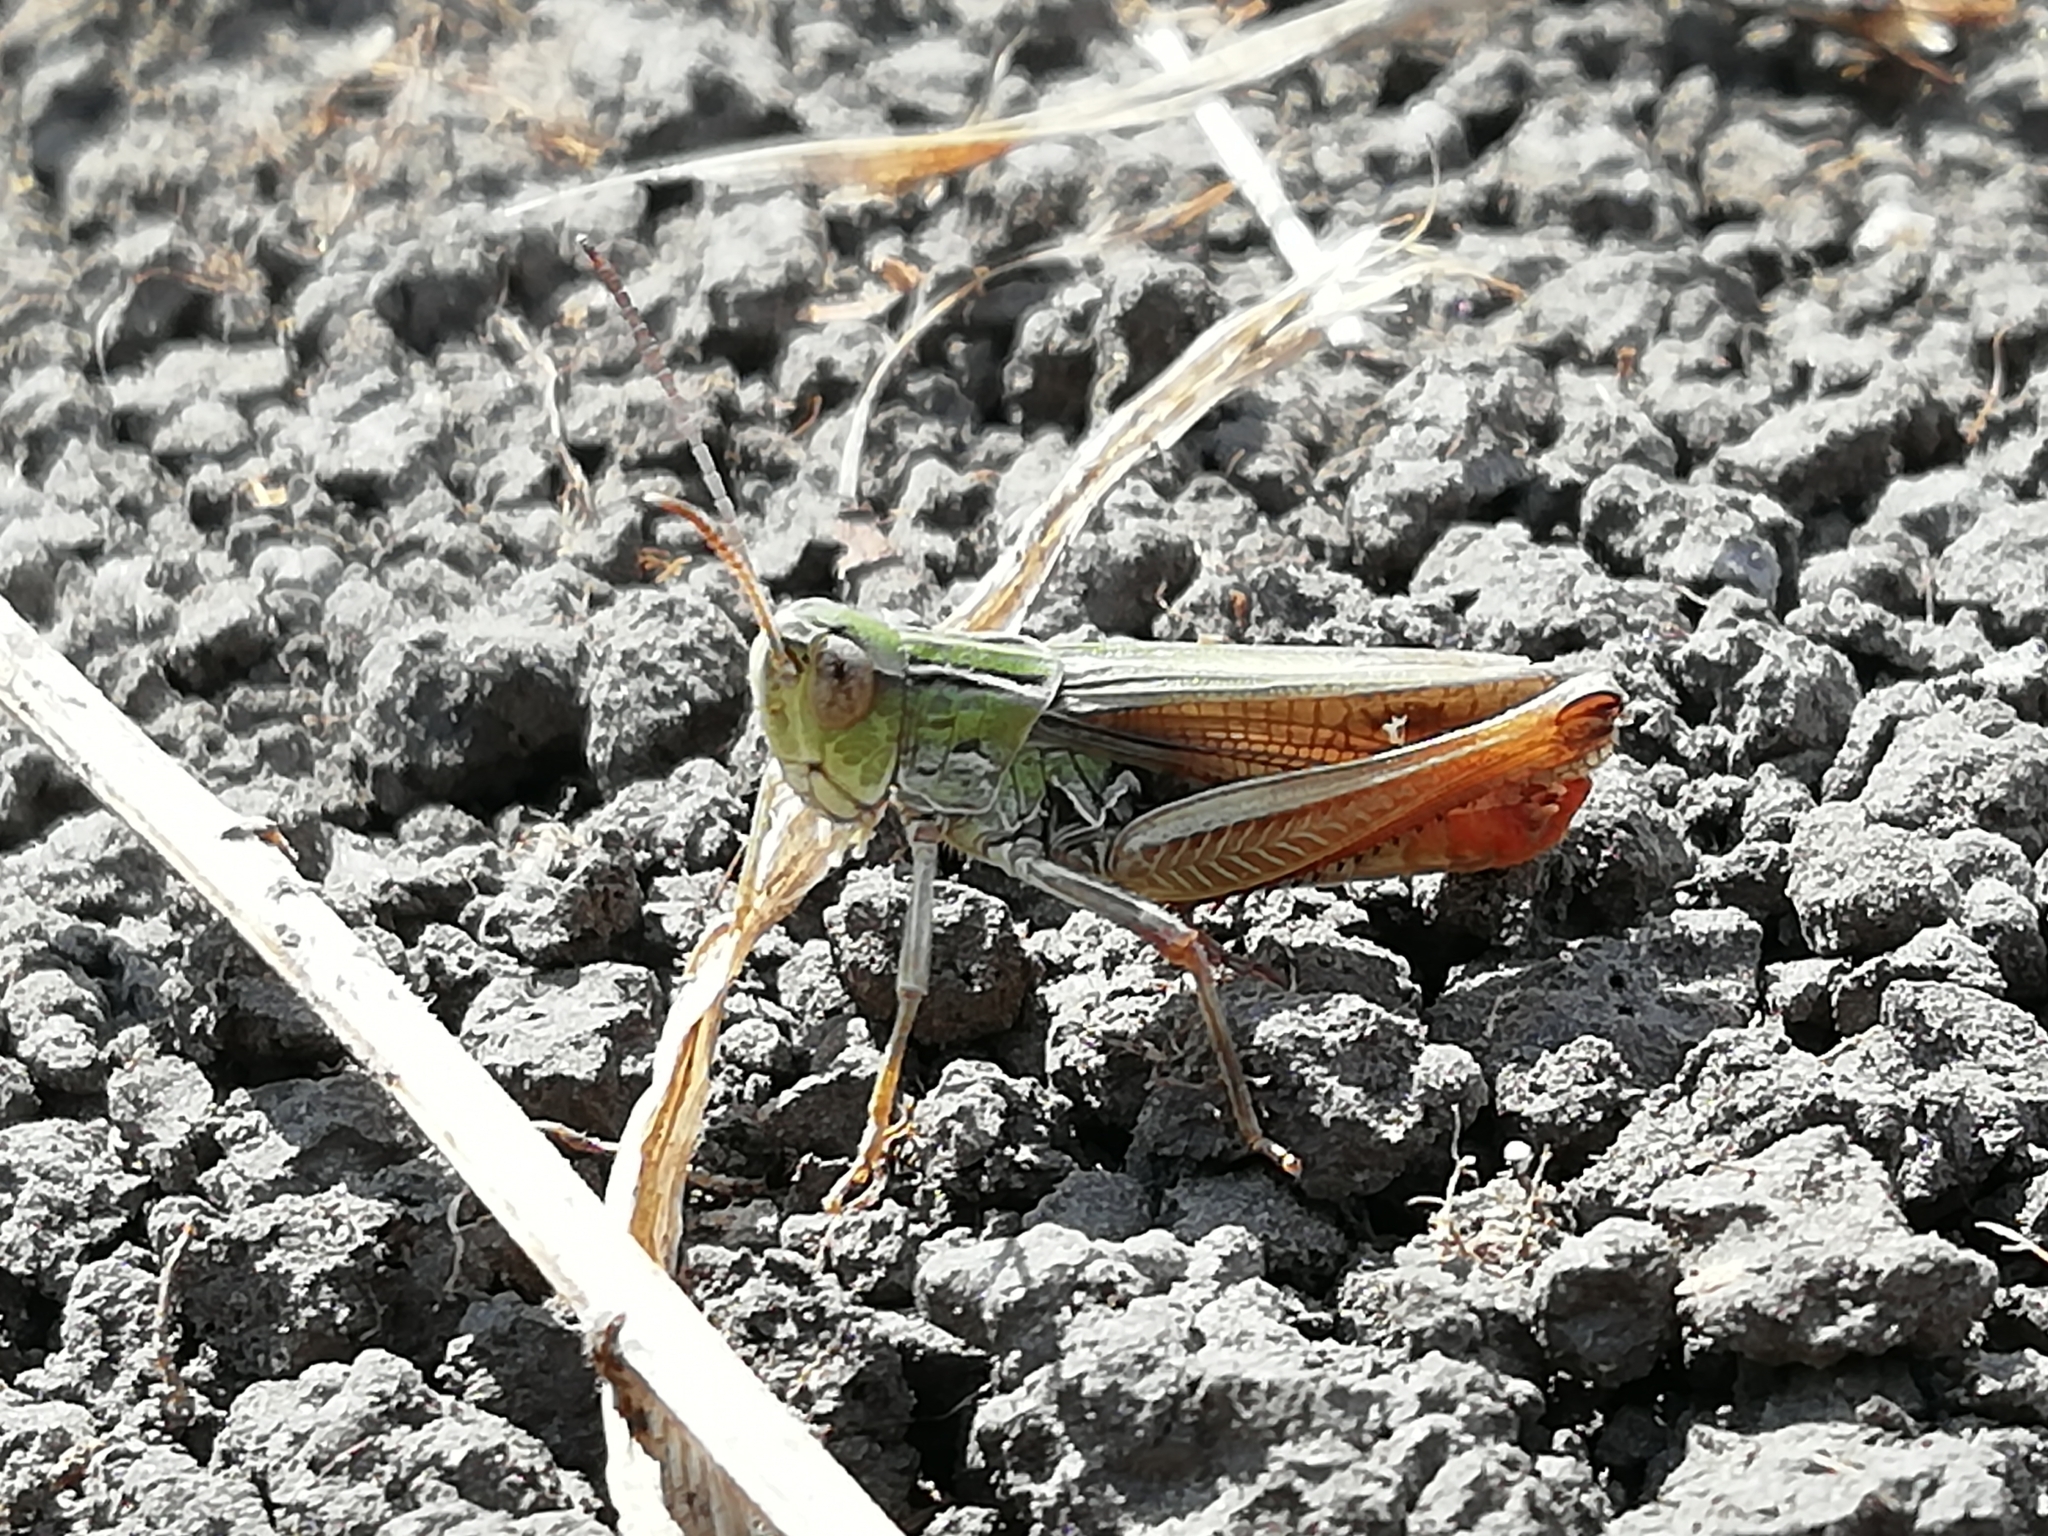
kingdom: Animalia
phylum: Arthropoda
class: Insecta
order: Orthoptera
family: Acrididae
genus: Stenobothrus
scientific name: Stenobothrus lineatus
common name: Stripe-winged grasshopper
